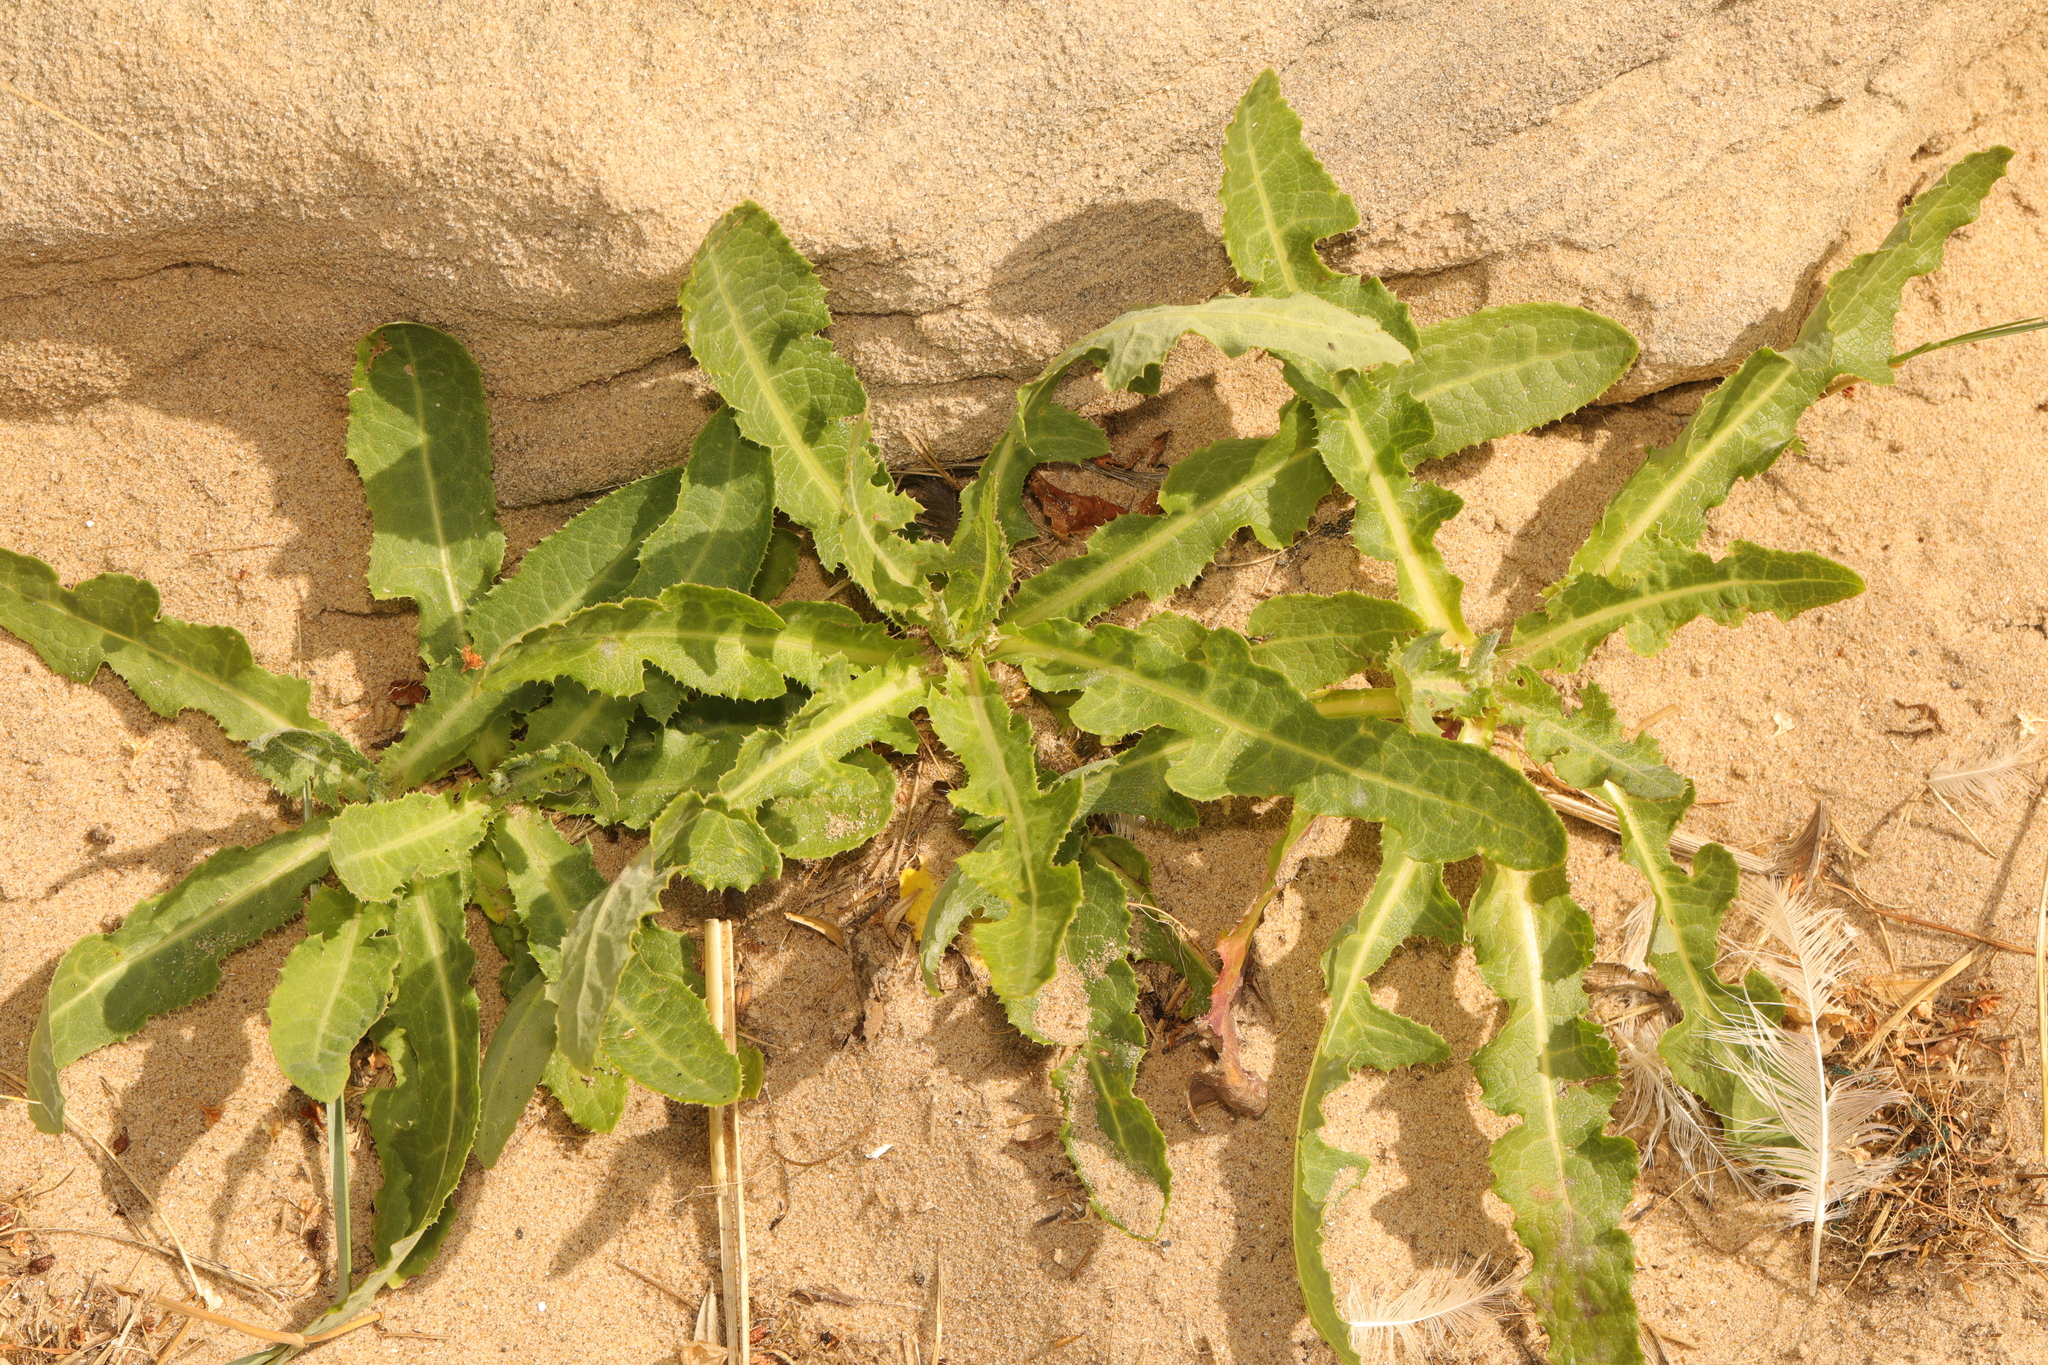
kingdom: Plantae
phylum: Tracheophyta
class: Magnoliopsida
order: Asterales
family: Asteraceae
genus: Sonchus
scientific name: Sonchus arvensis
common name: Perennial sow-thistle
